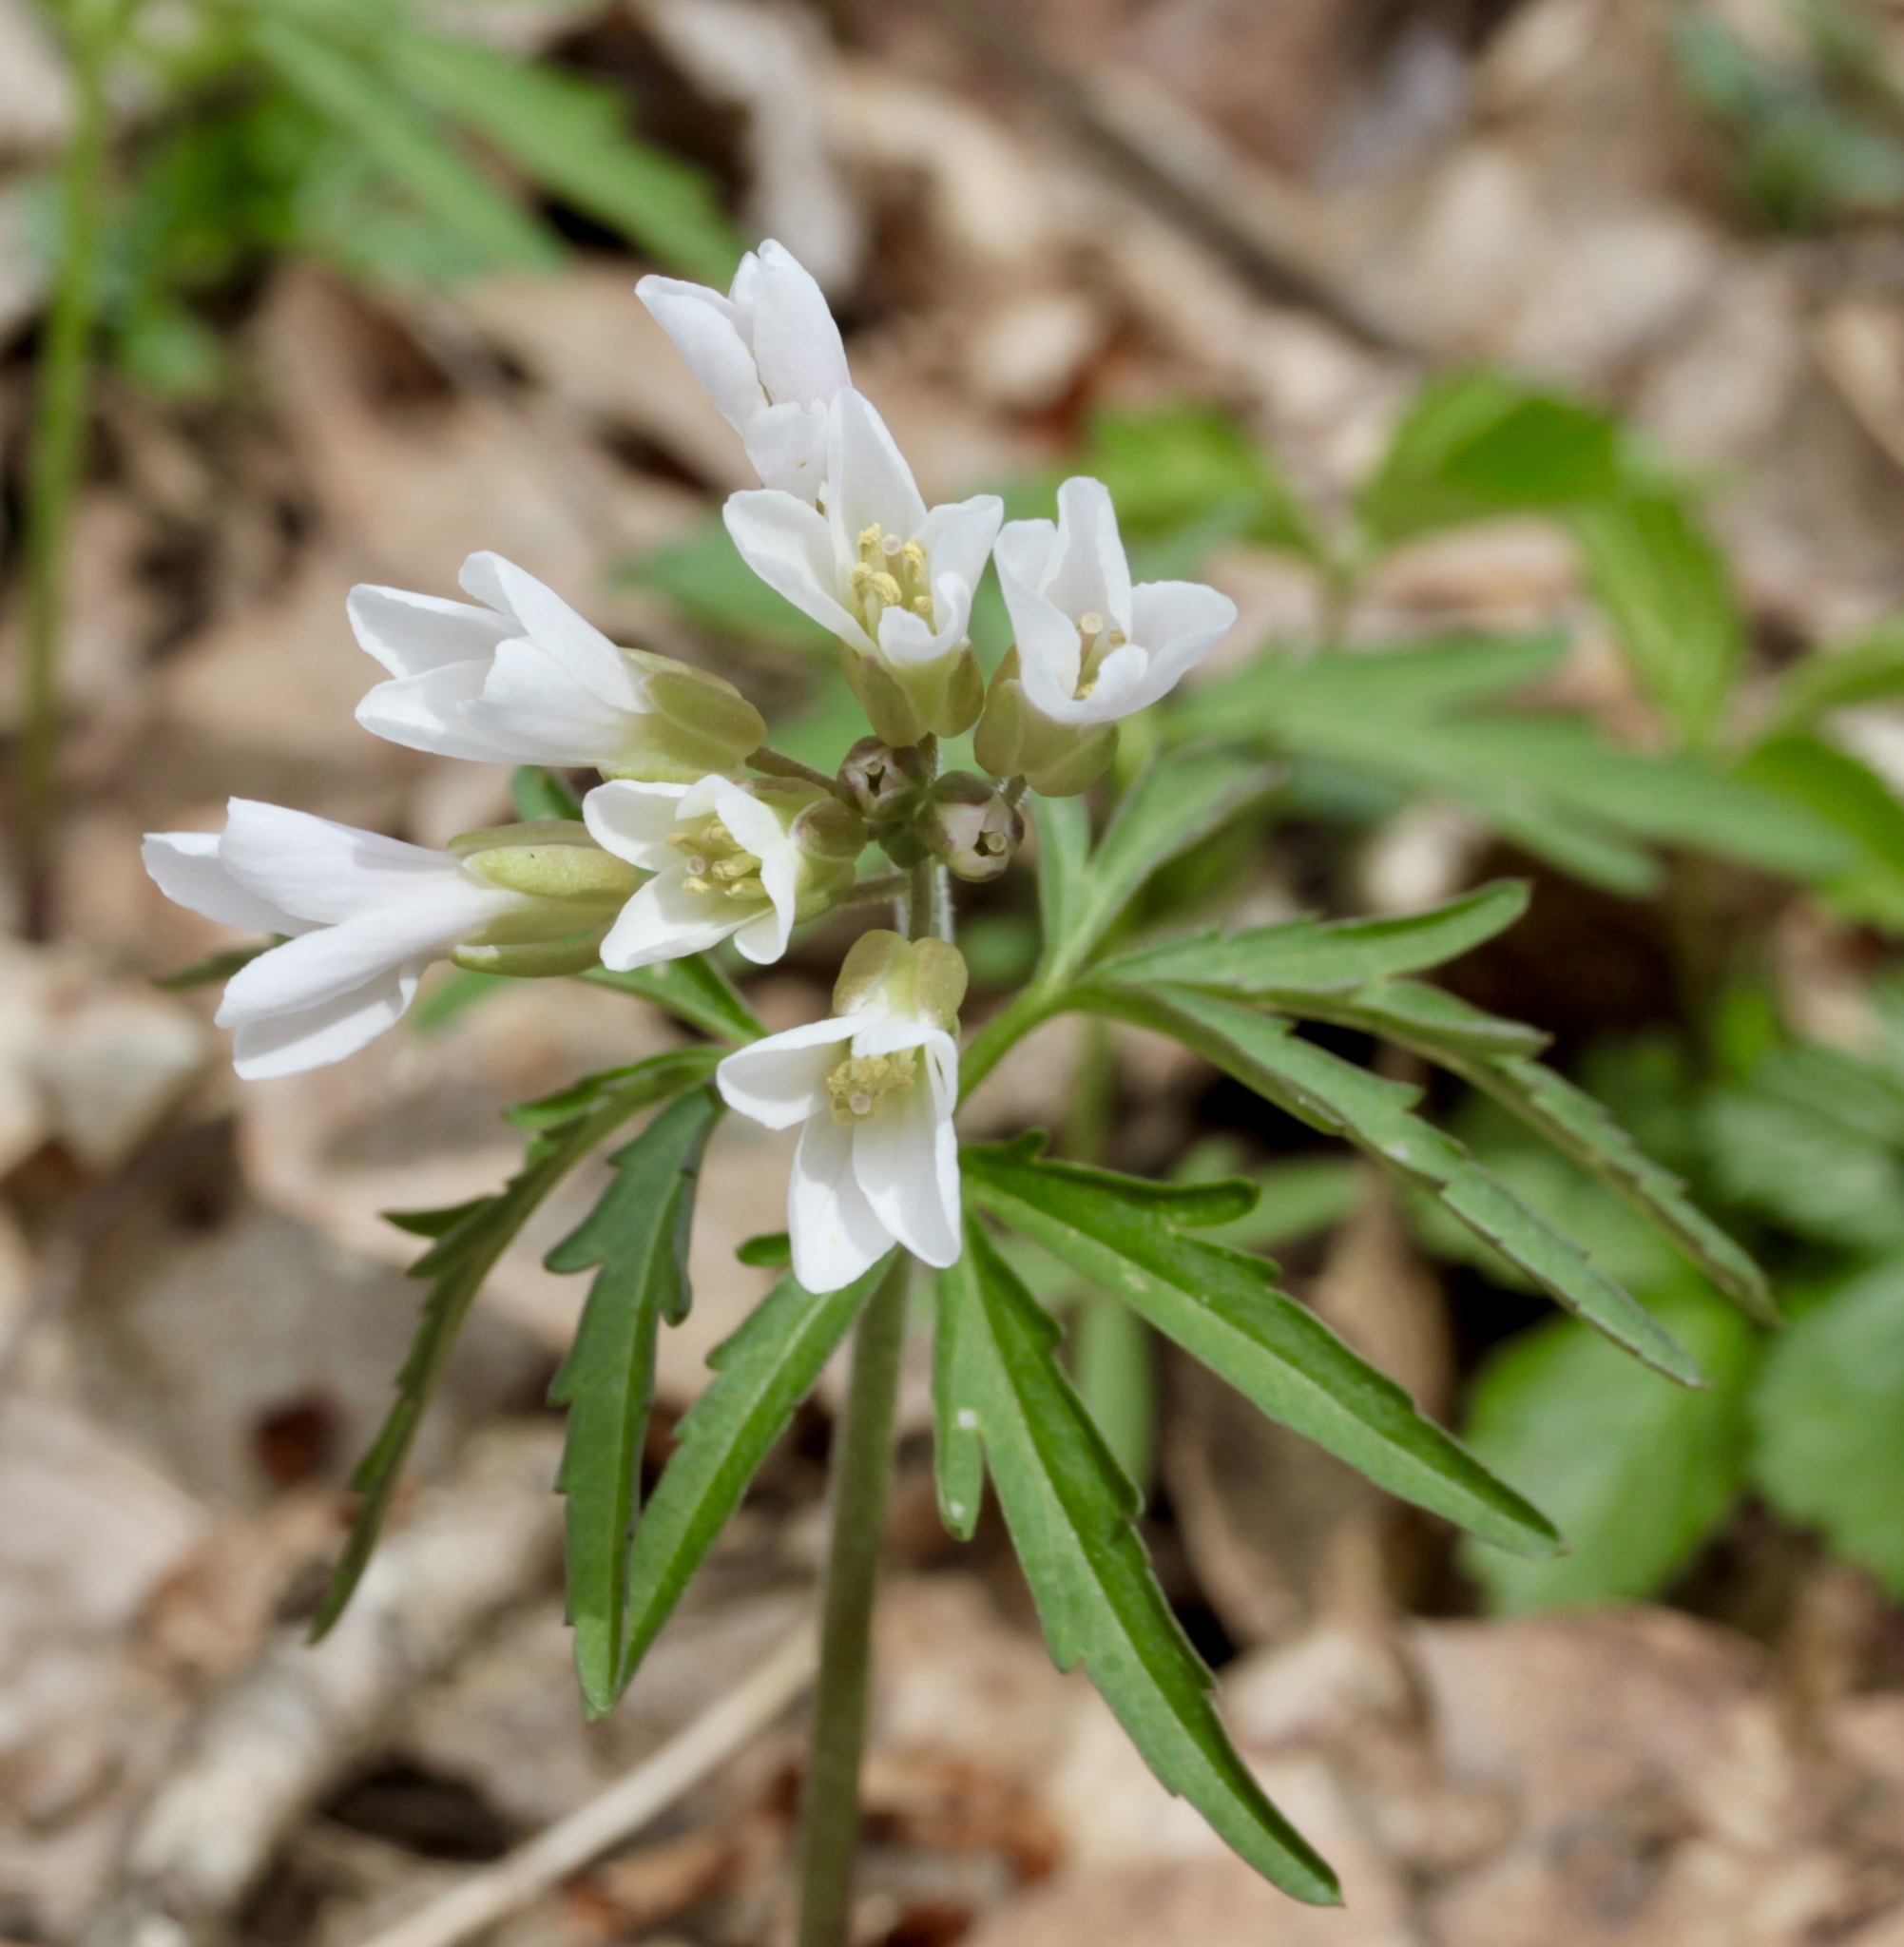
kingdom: Plantae
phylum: Tracheophyta
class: Magnoliopsida
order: Brassicales
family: Brassicaceae
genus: Cardamine
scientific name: Cardamine concatenata
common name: Cut-leaf toothcup
